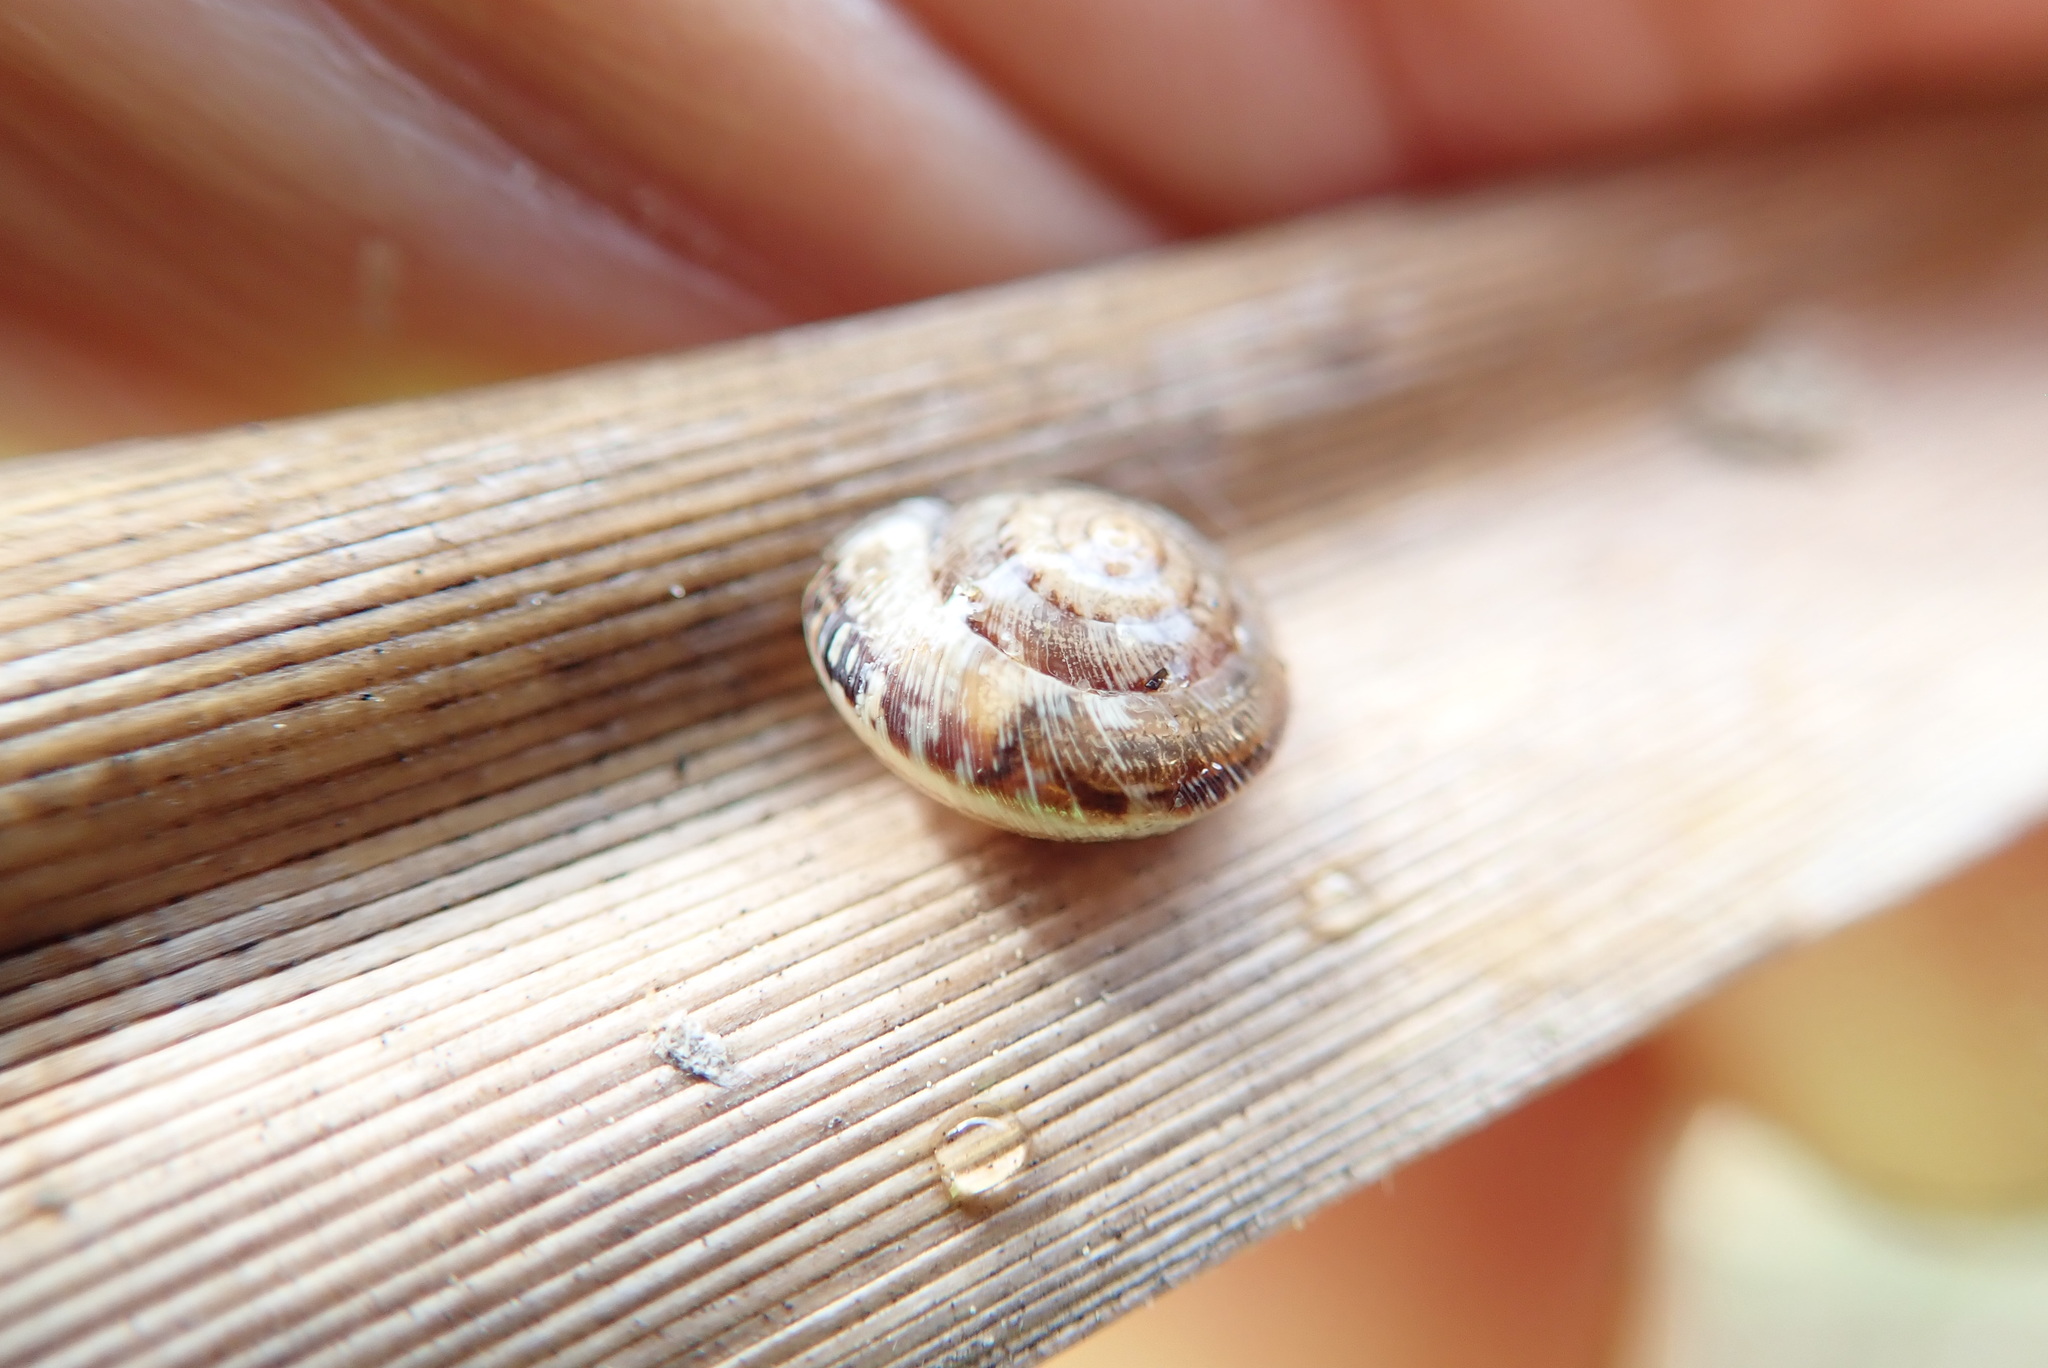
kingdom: Animalia
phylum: Mollusca
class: Gastropoda
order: Stylommatophora
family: Geomitridae
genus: Xeroplexa
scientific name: Xeroplexa intersecta
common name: Wrinkled snail
